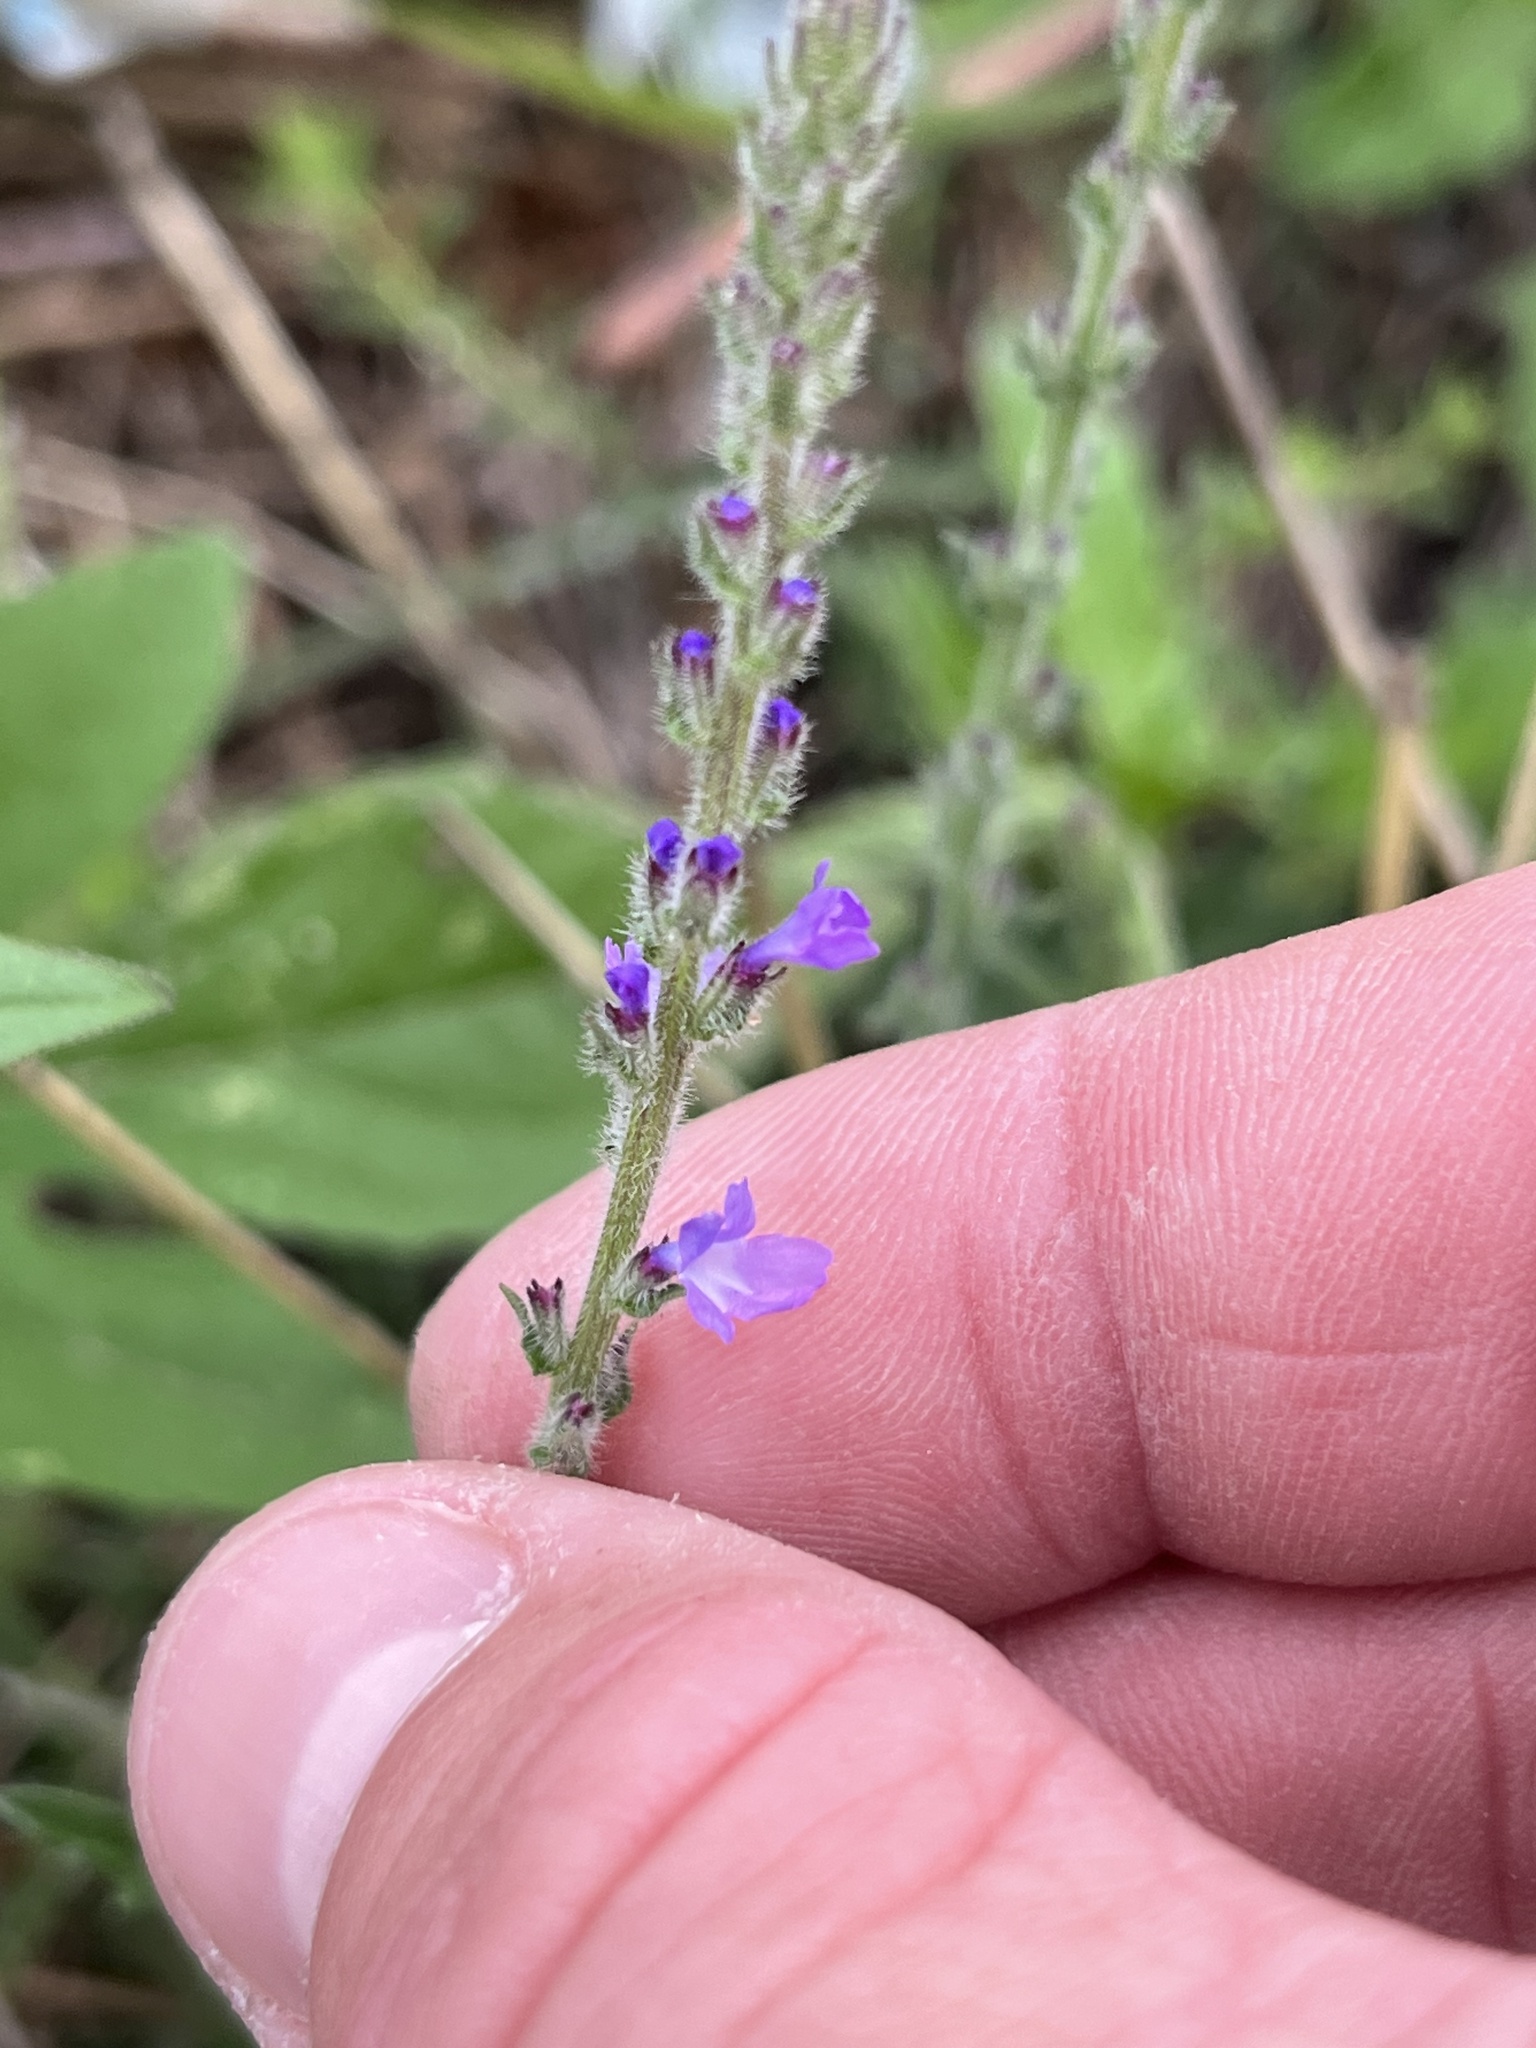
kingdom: Plantae
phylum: Tracheophyta
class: Magnoliopsida
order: Lamiales
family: Verbenaceae
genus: Verbena
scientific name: Verbena canescens
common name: Gray vervain
